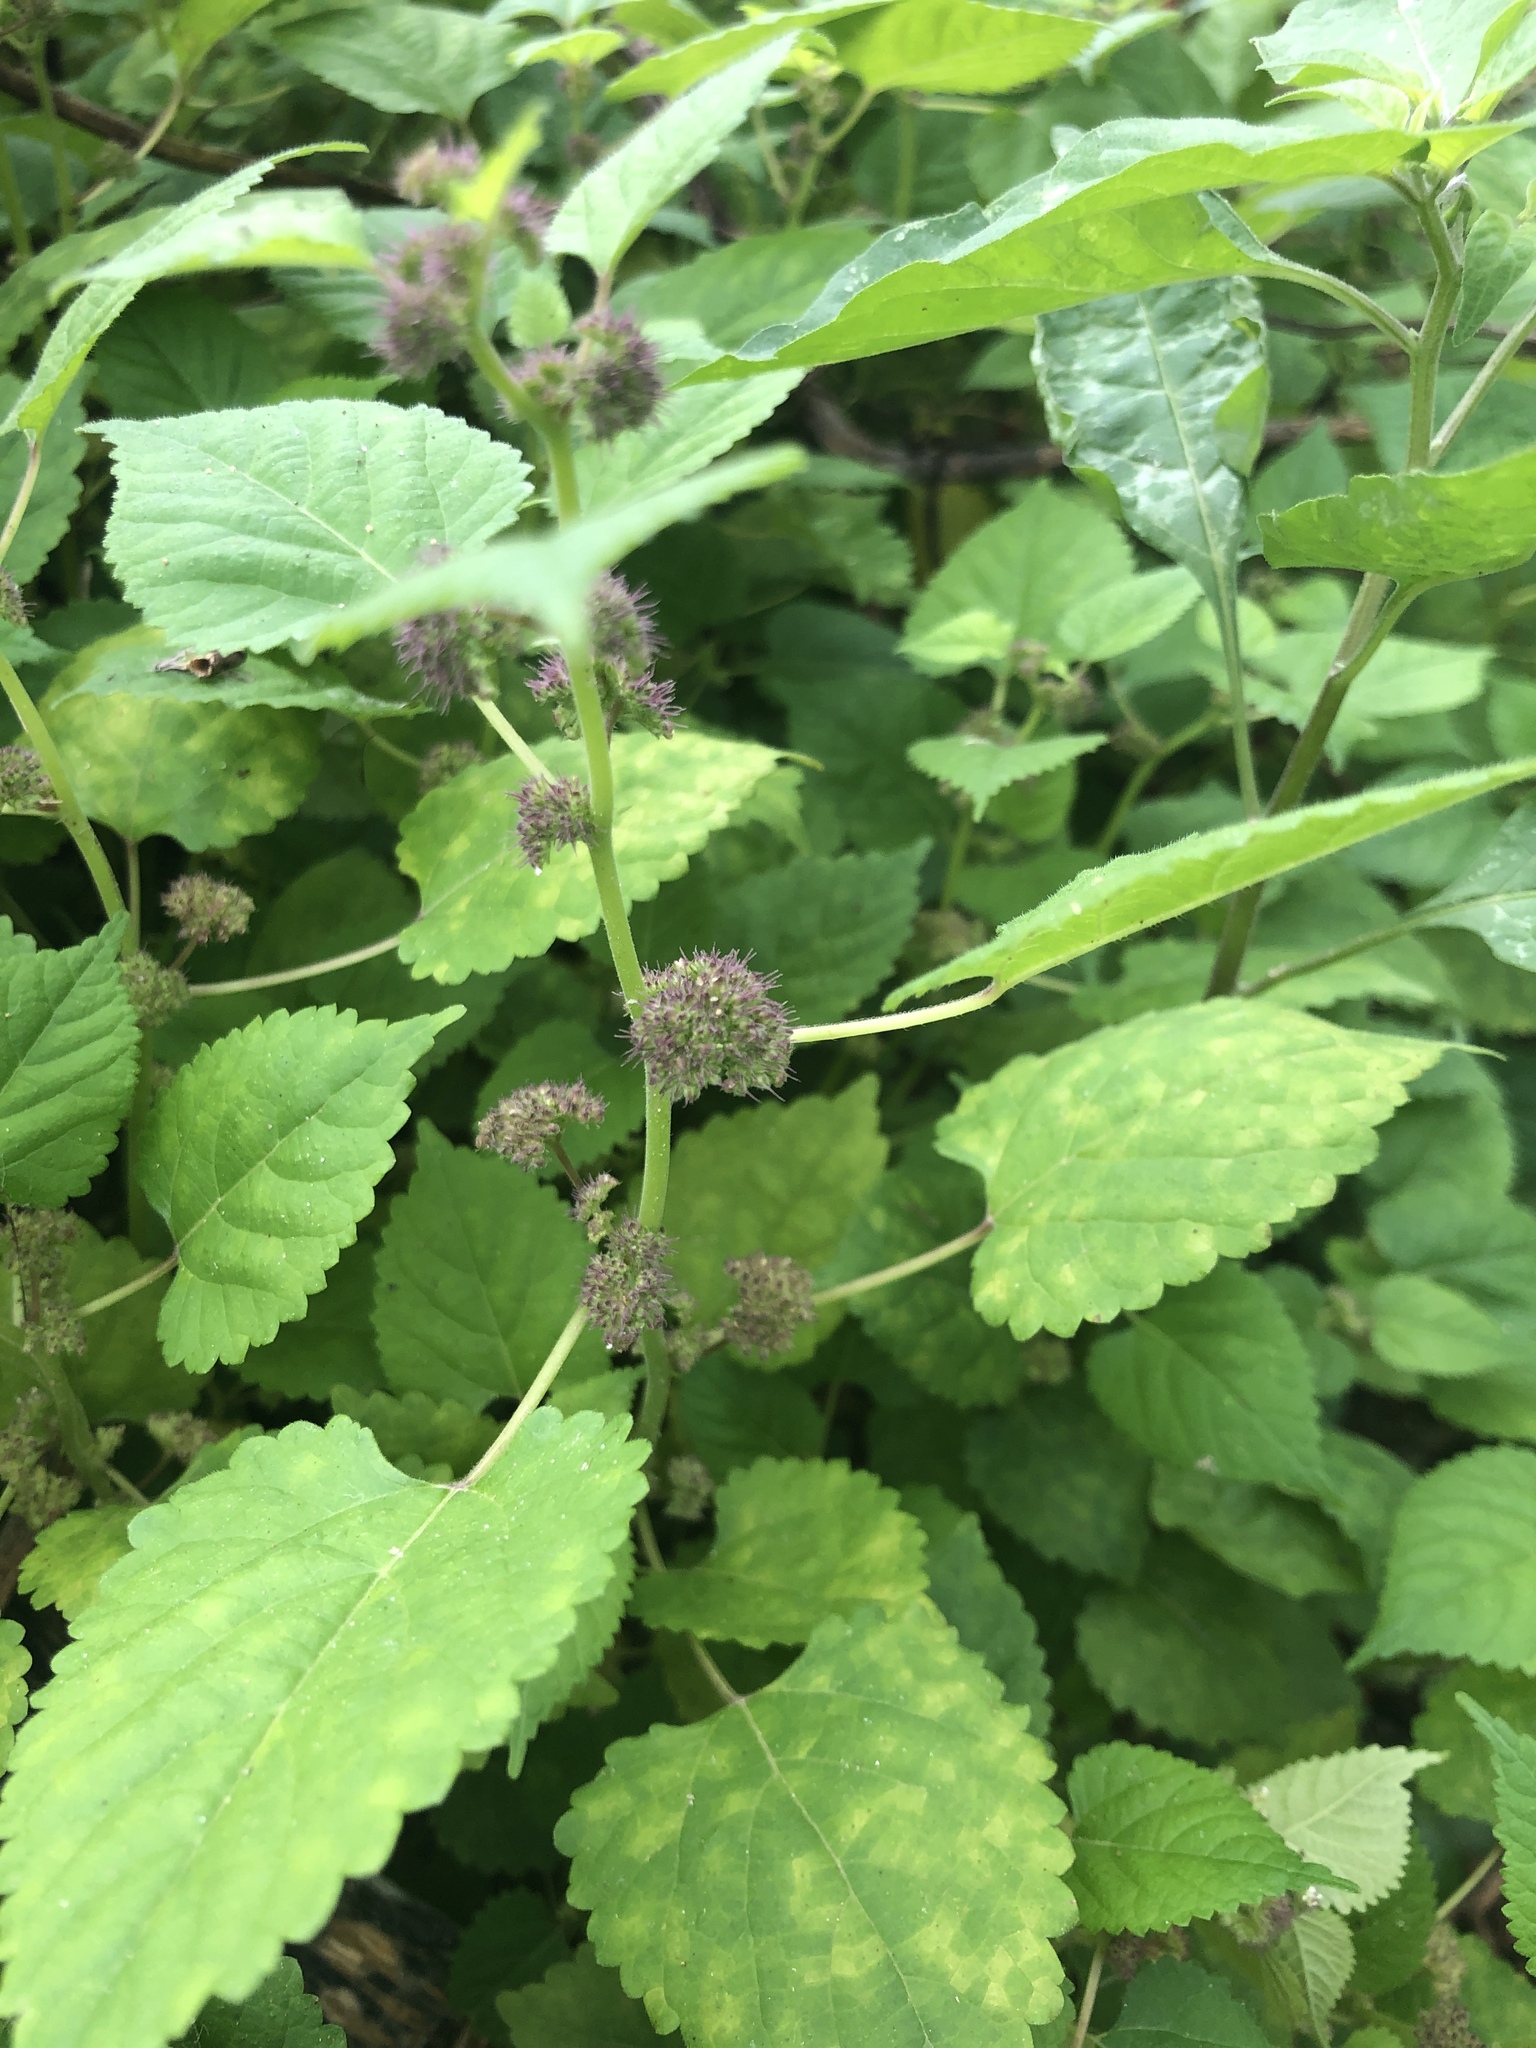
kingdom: Plantae
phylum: Tracheophyta
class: Magnoliopsida
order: Rosales
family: Moraceae
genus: Fatoua
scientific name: Fatoua villosa
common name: Hairy crabweed
